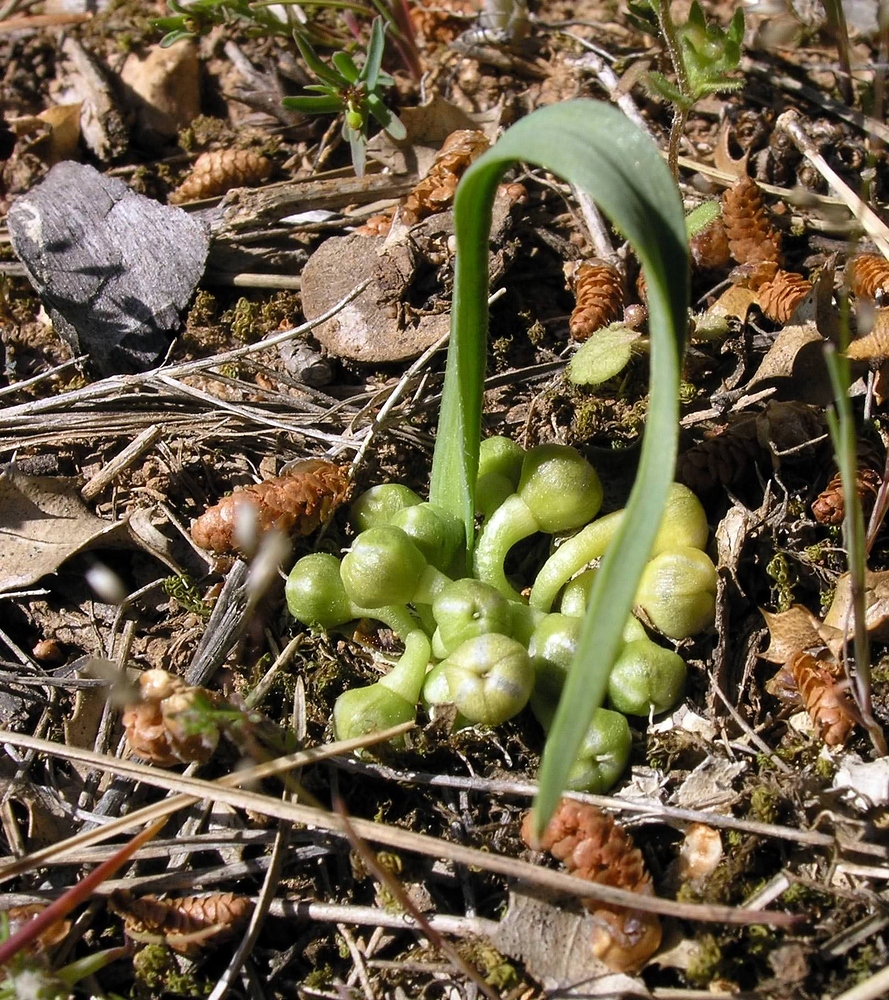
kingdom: Plantae
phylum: Tracheophyta
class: Liliopsida
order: Asparagales
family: Amaryllidaceae
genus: Allium
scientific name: Allium chamaemoly
